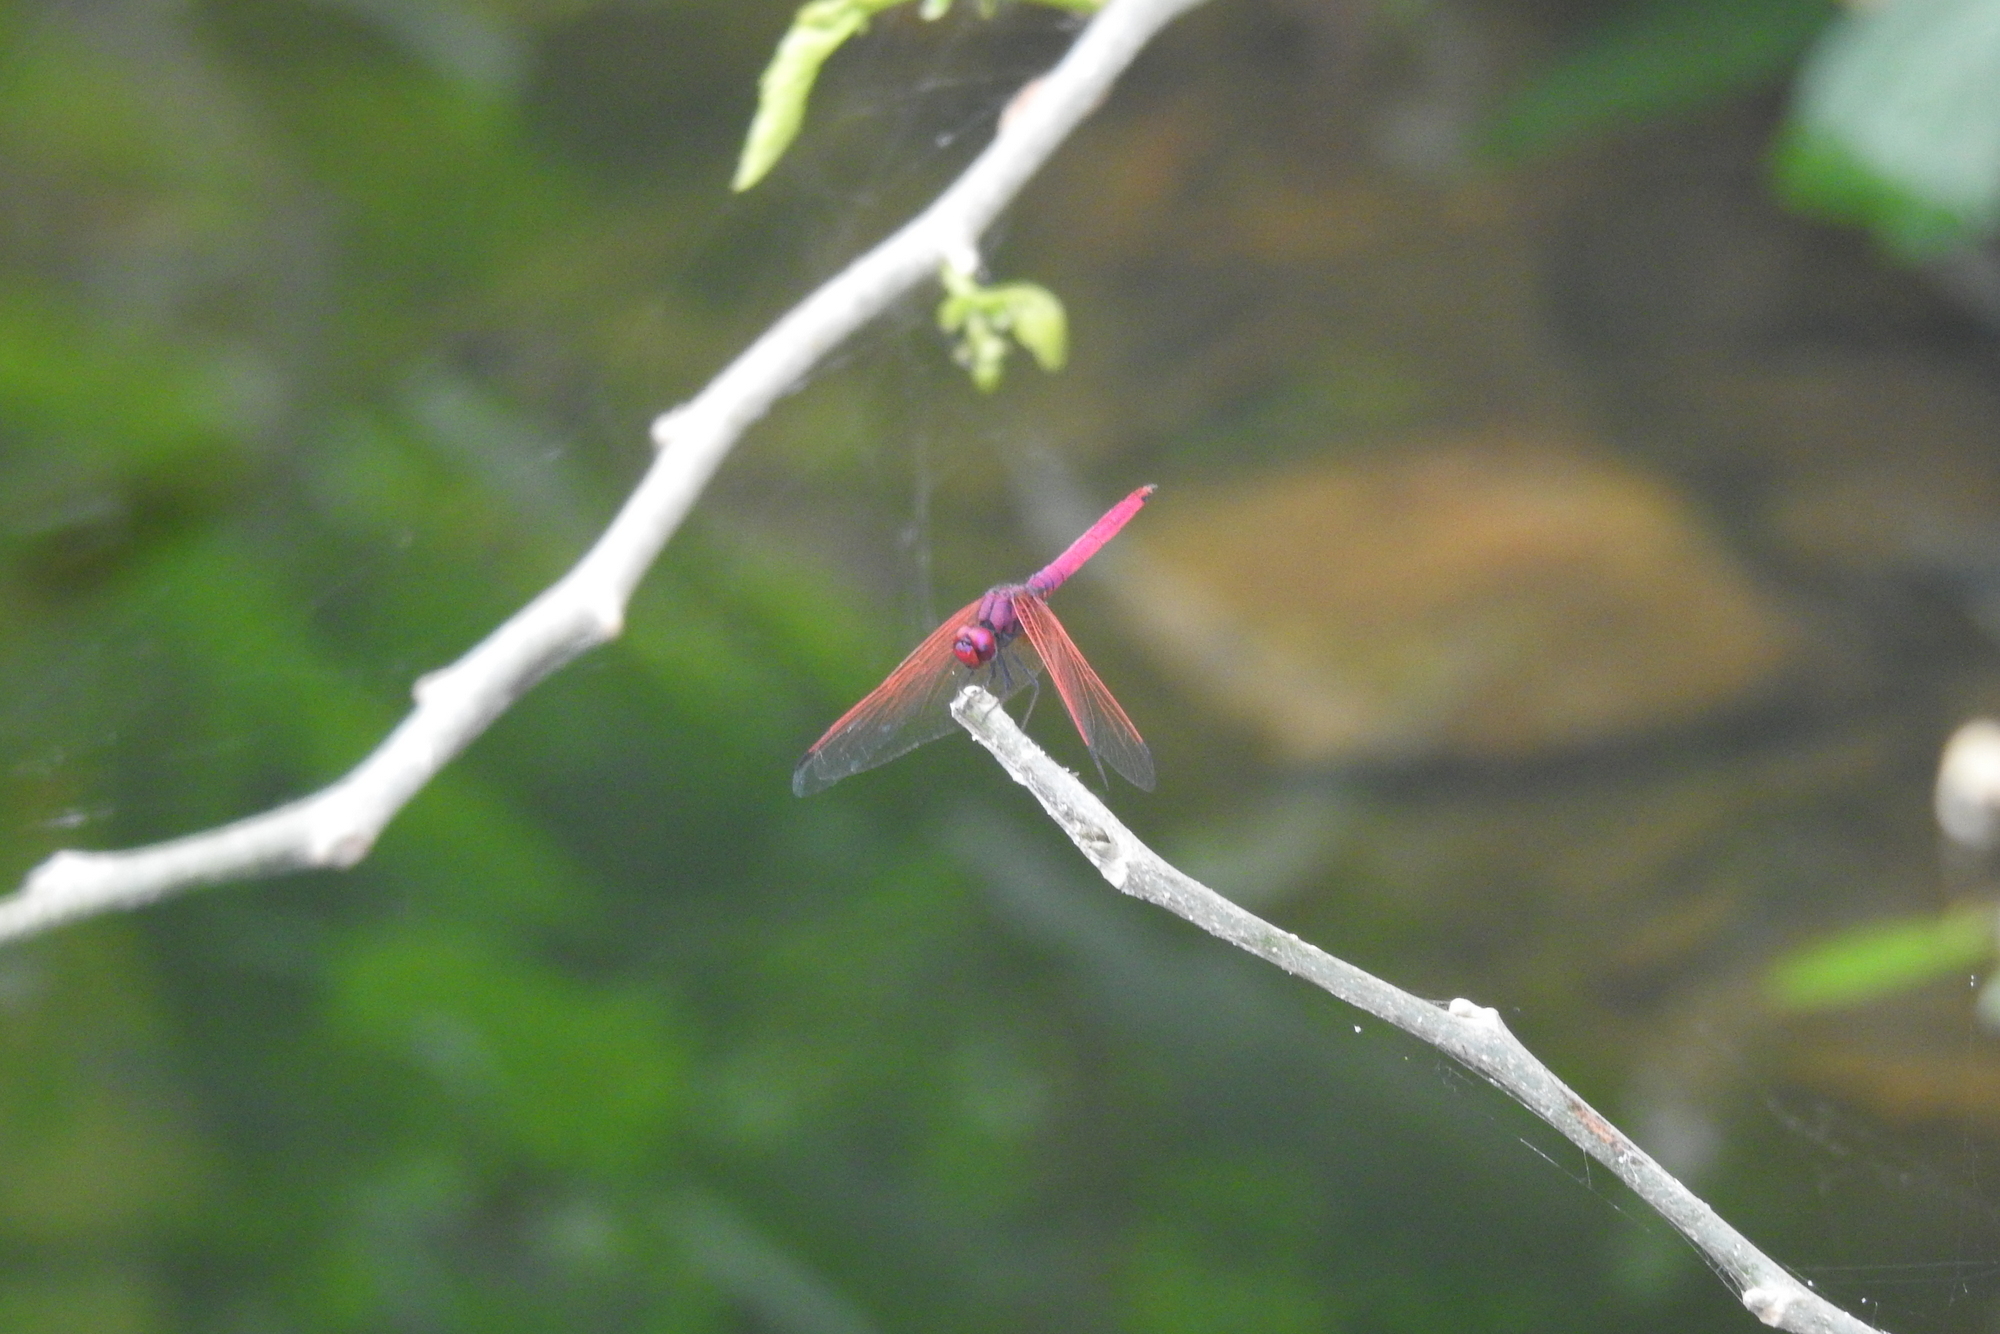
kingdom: Animalia
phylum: Arthropoda
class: Insecta
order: Odonata
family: Libellulidae
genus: Trithemis
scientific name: Trithemis aurora
